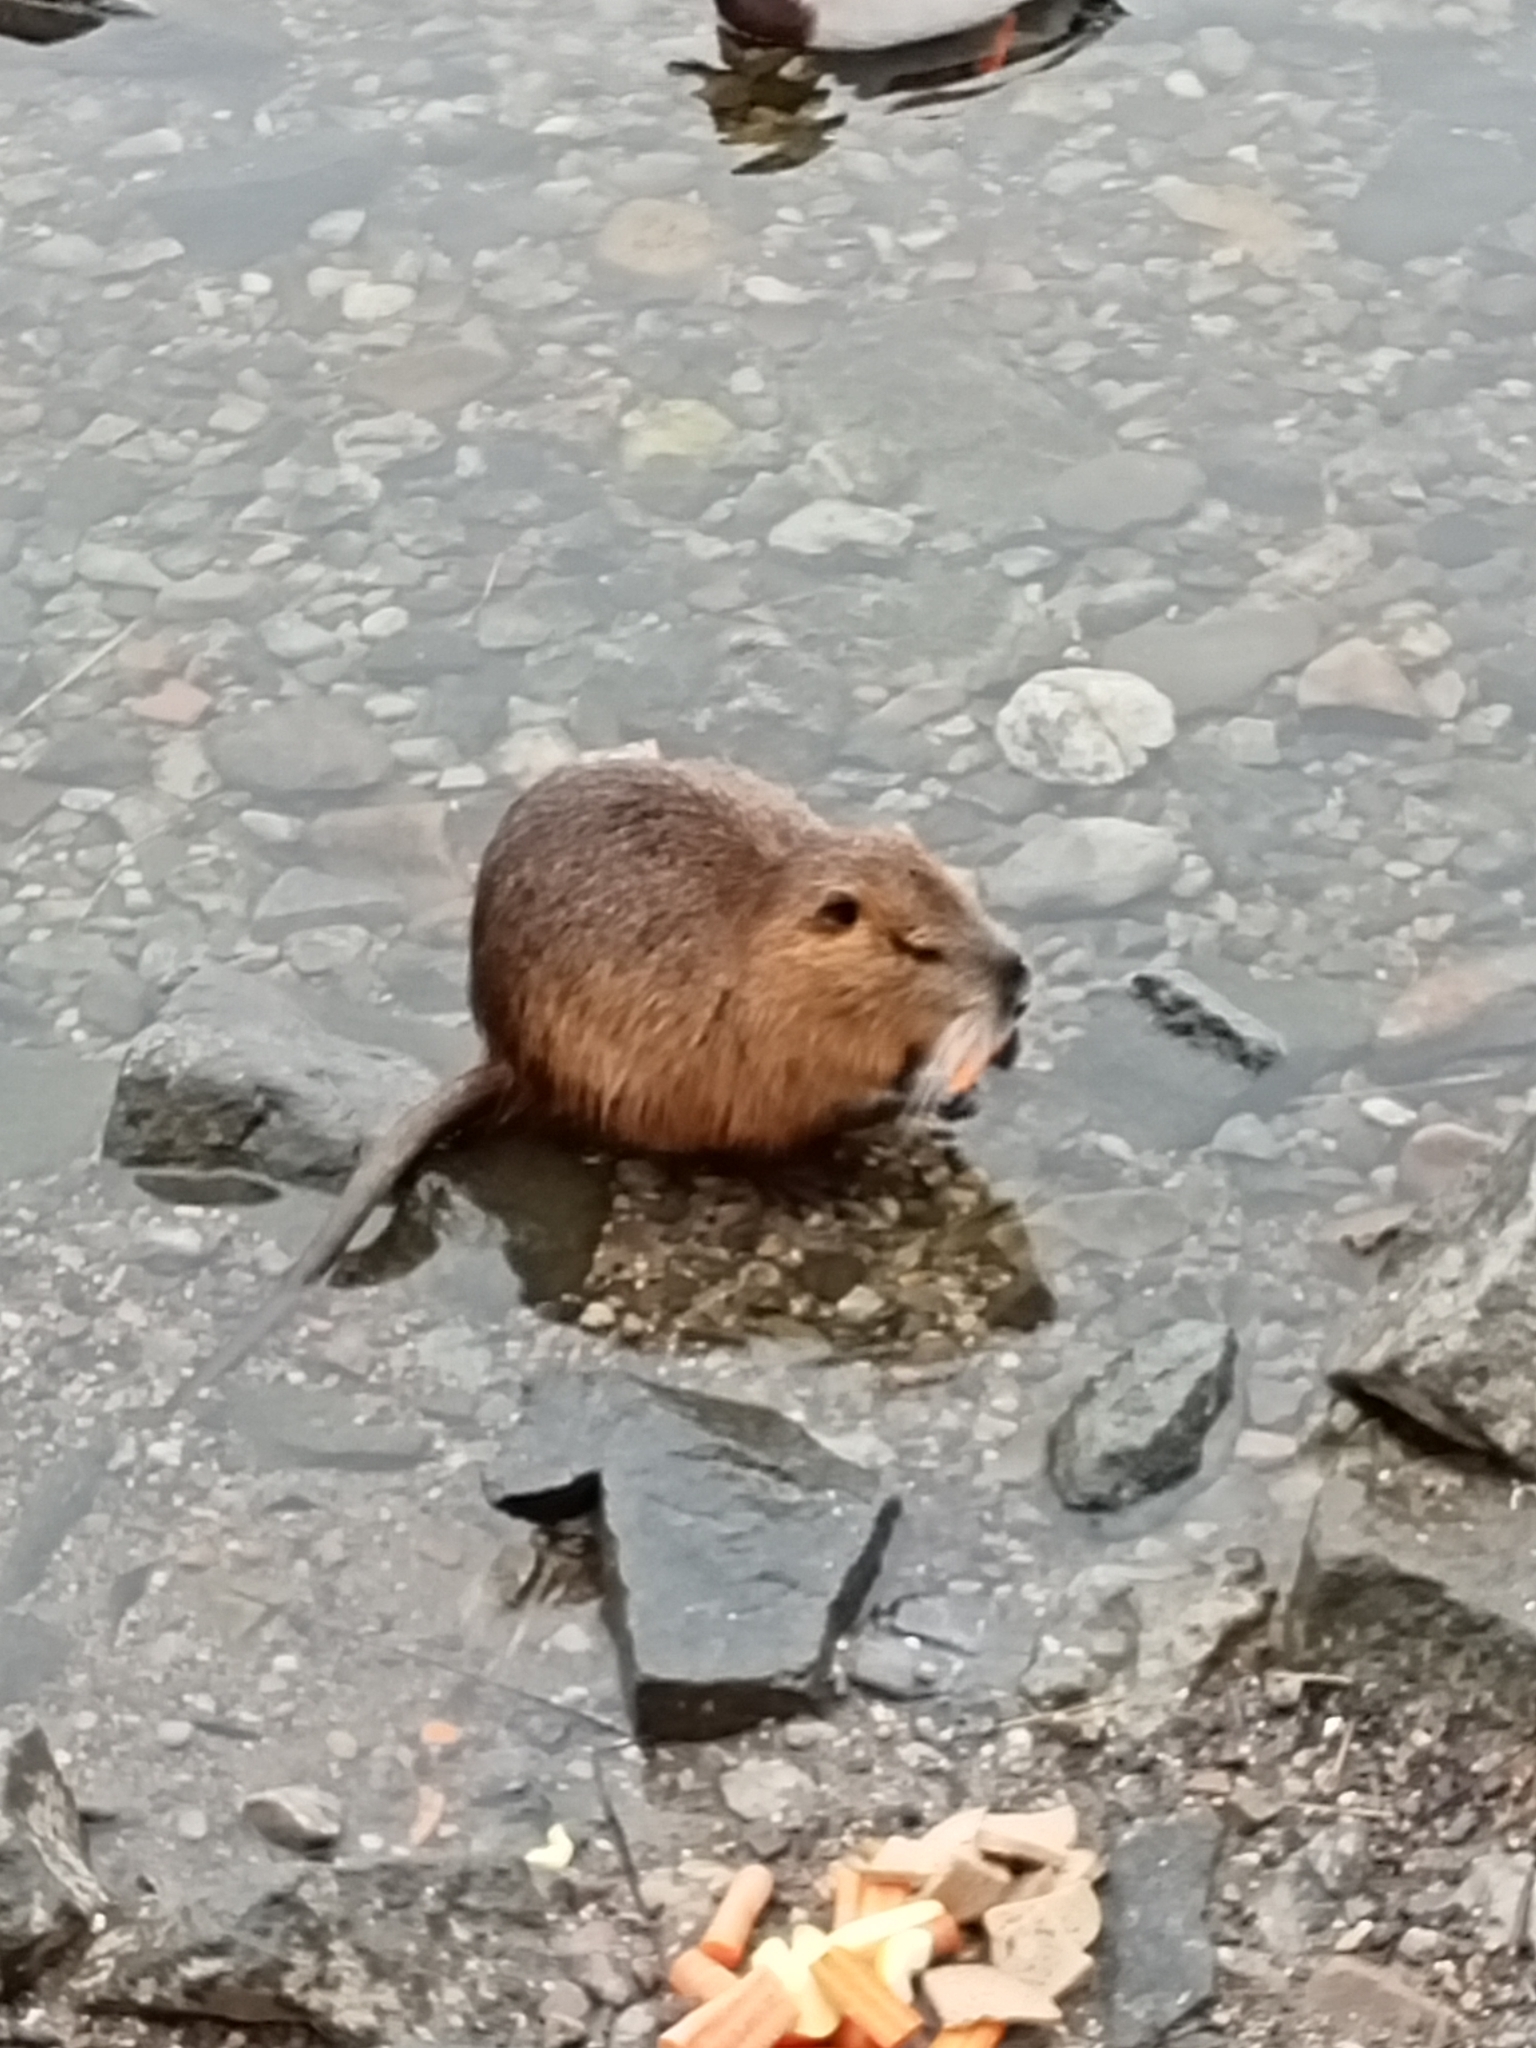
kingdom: Animalia
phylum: Chordata
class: Mammalia
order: Rodentia
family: Myocastoridae
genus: Myocastor
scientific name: Myocastor coypus
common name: Coypu
